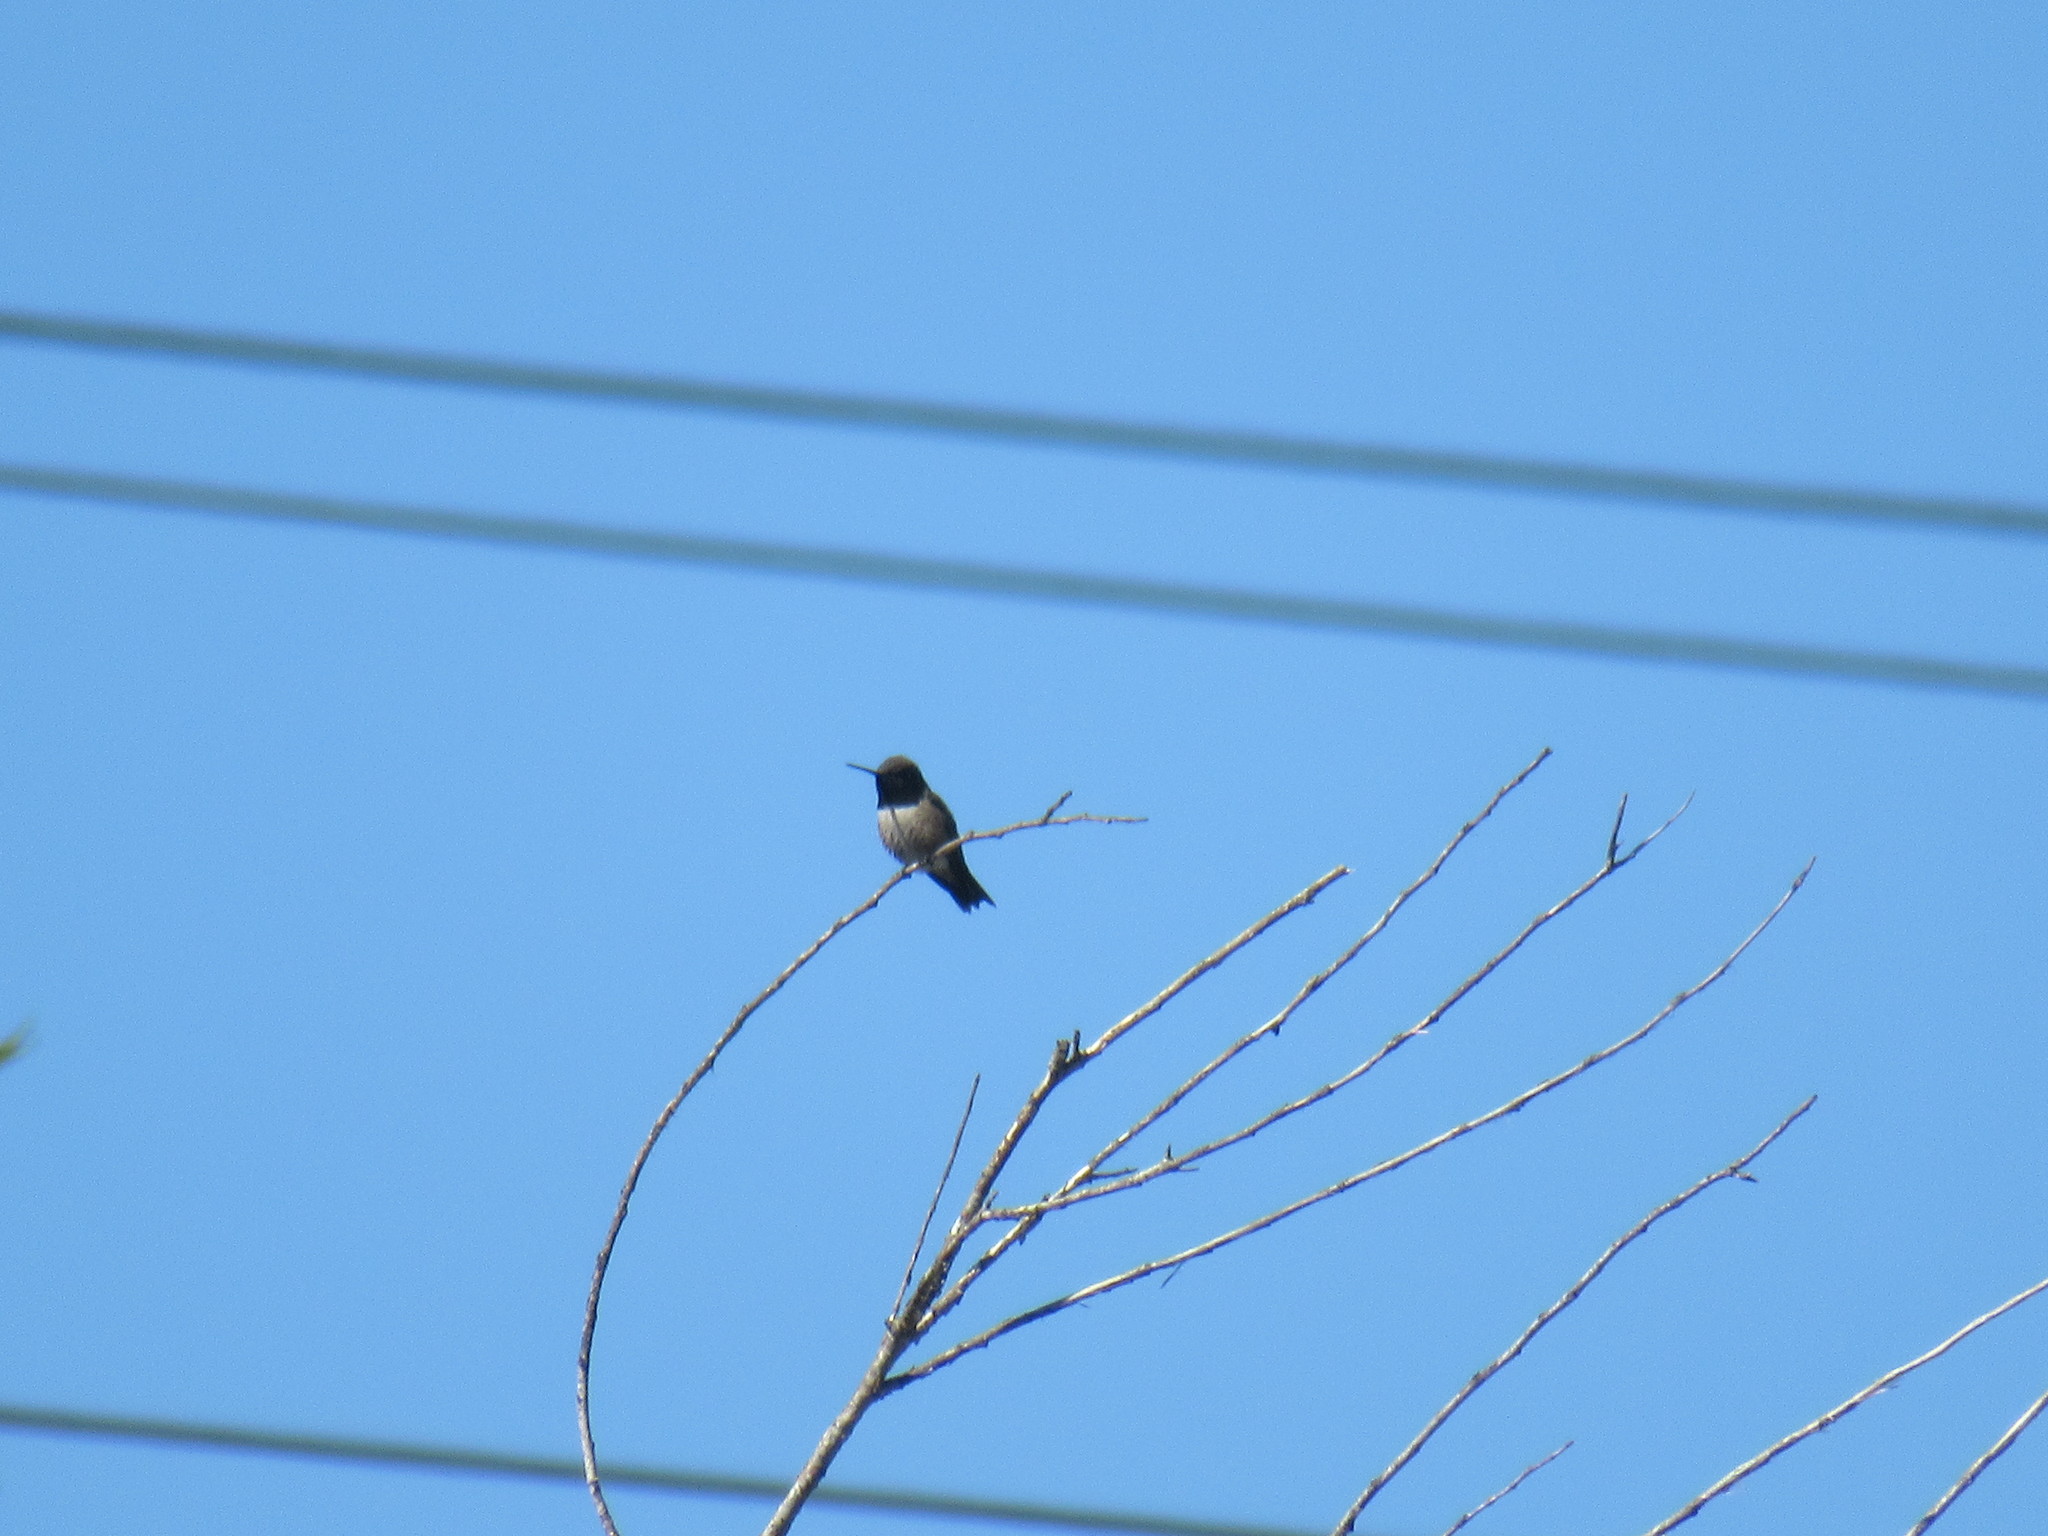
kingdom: Animalia
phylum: Chordata
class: Aves
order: Apodiformes
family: Trochilidae
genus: Archilochus
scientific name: Archilochus alexandri
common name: Black-chinned hummingbird
